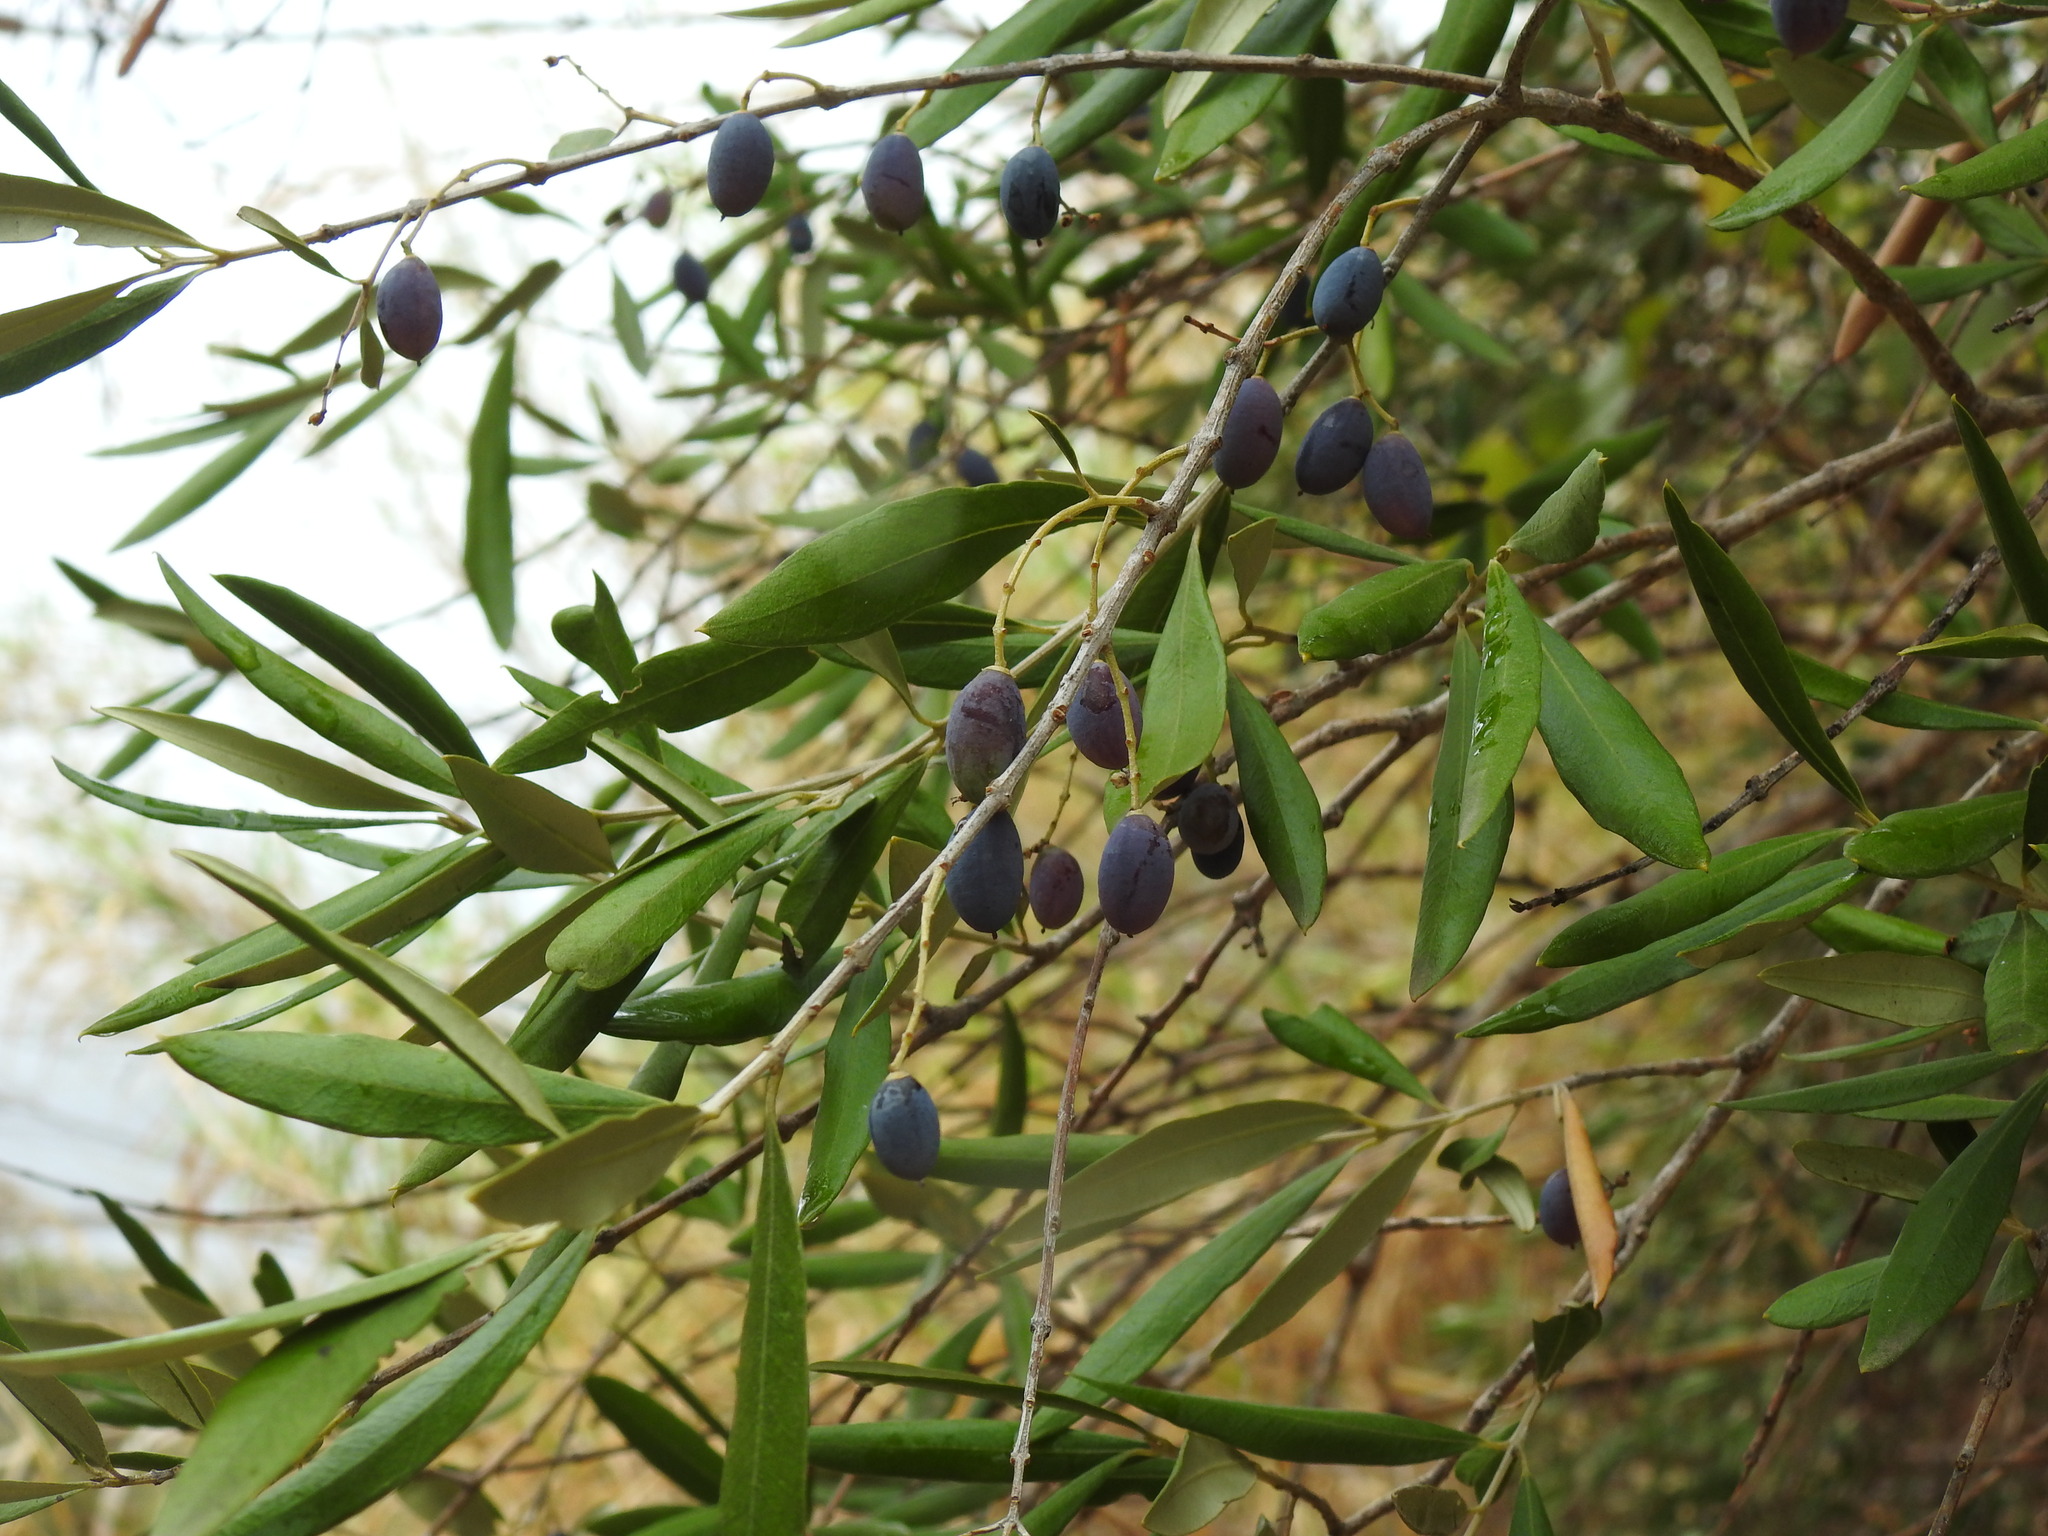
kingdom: Plantae
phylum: Tracheophyta
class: Magnoliopsida
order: Lamiales
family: Oleaceae
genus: Olea
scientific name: Olea europaea
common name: Olive
